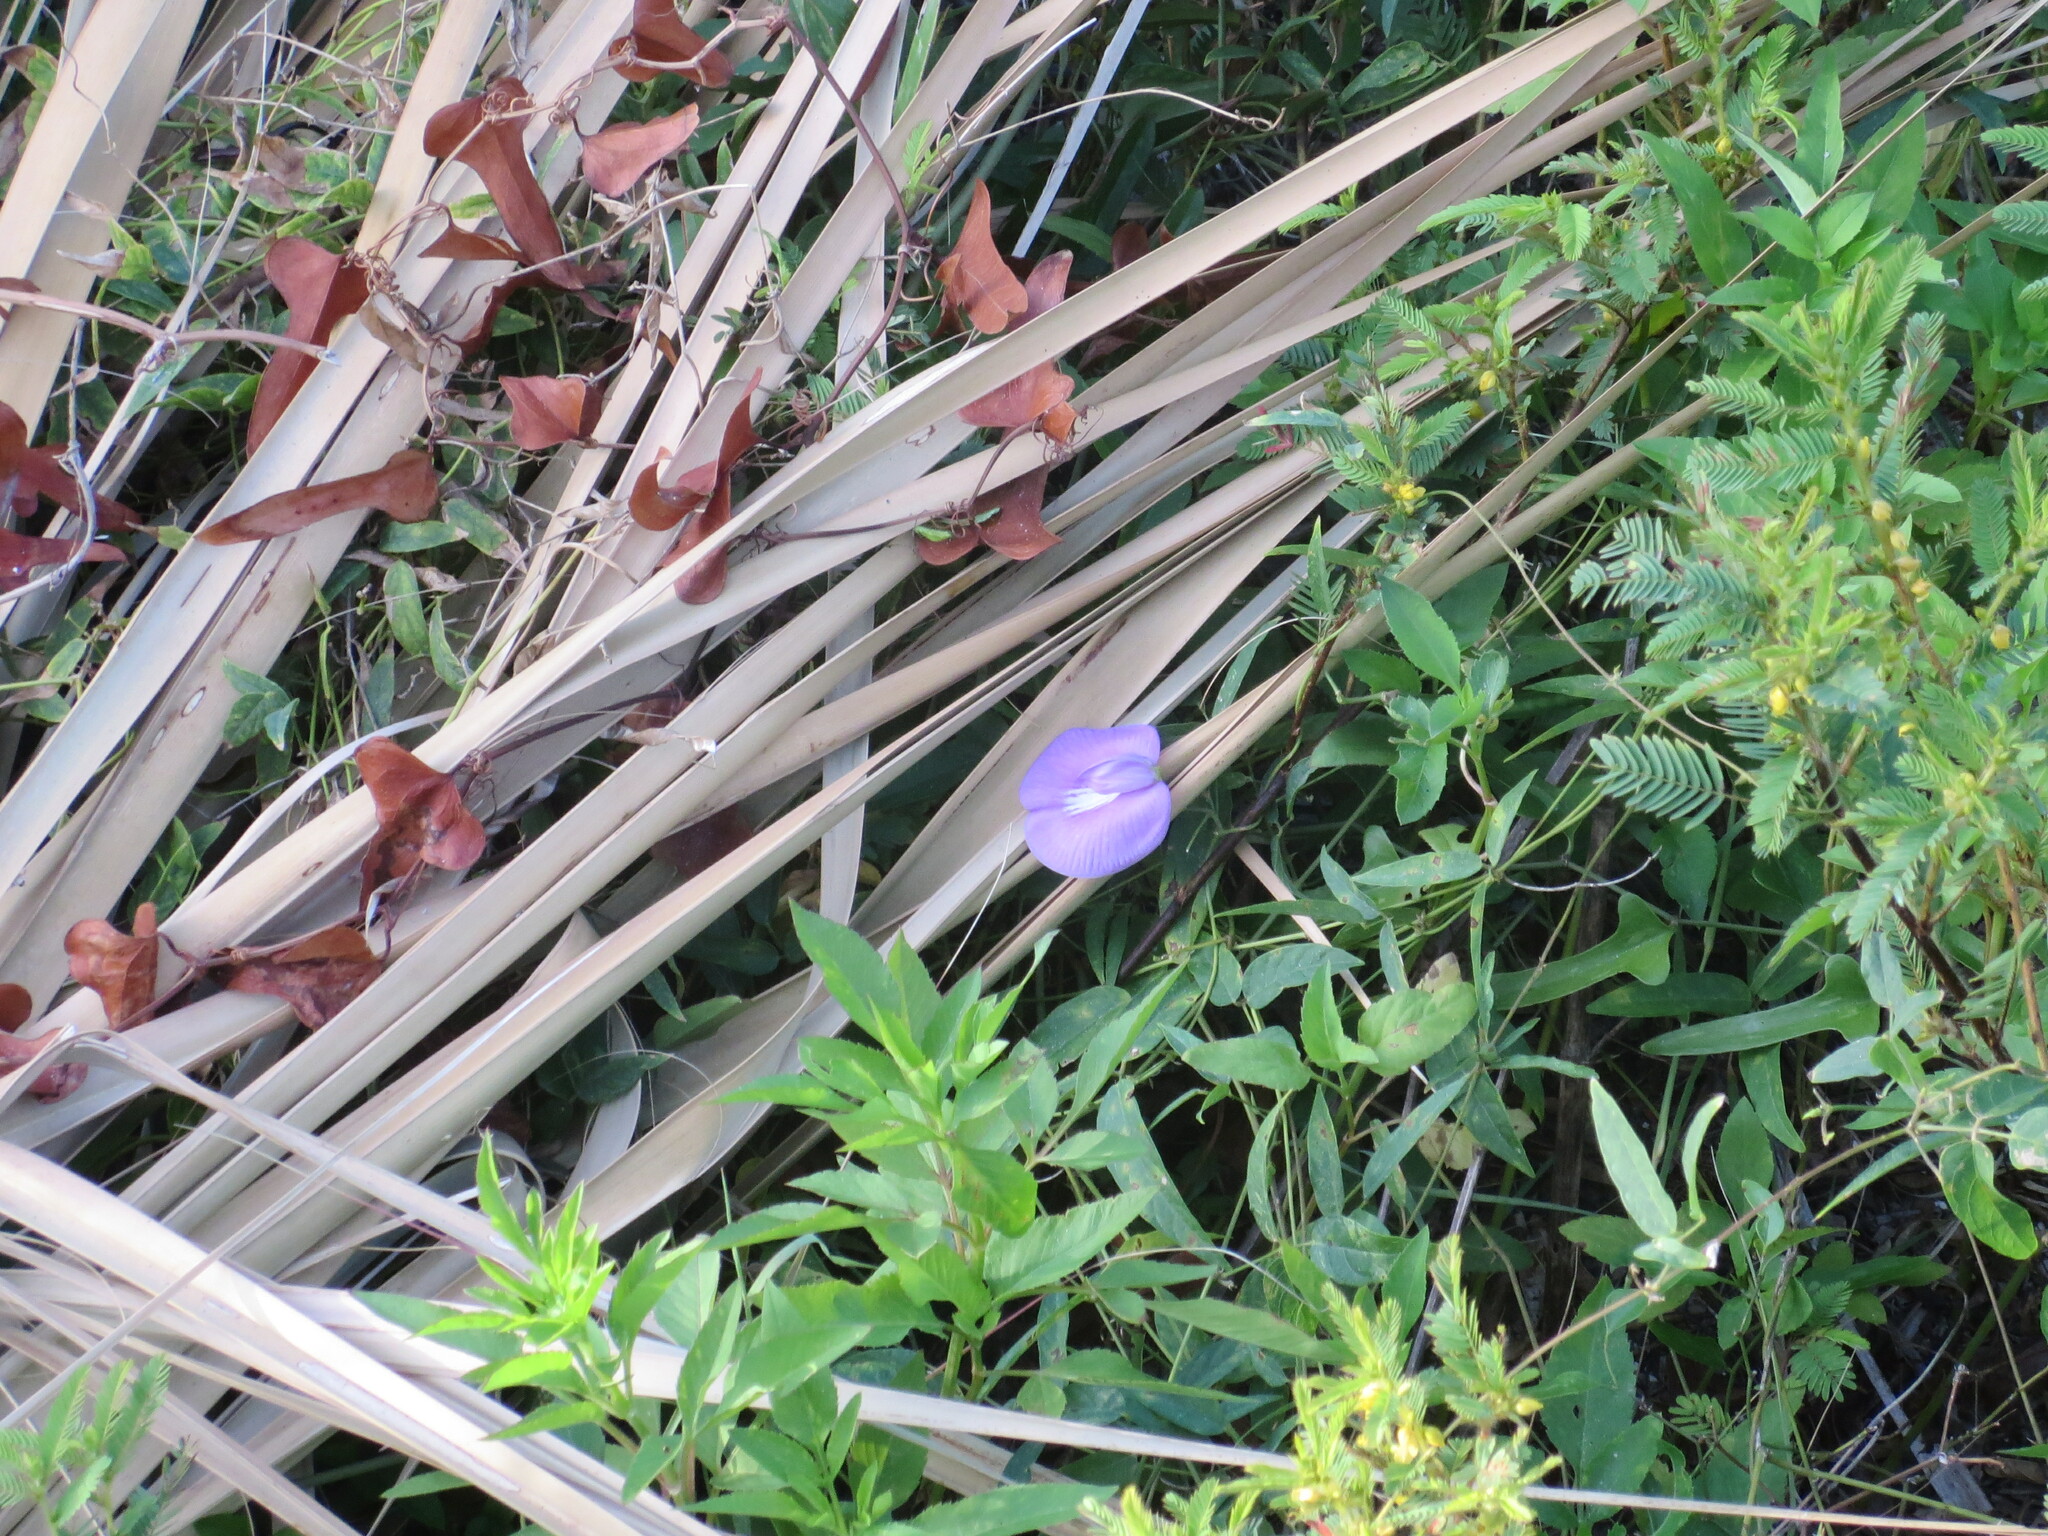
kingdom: Plantae
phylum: Tracheophyta
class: Magnoliopsida
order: Fabales
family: Fabaceae
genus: Centrosema
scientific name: Centrosema virginianum
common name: Butterfly-pea
